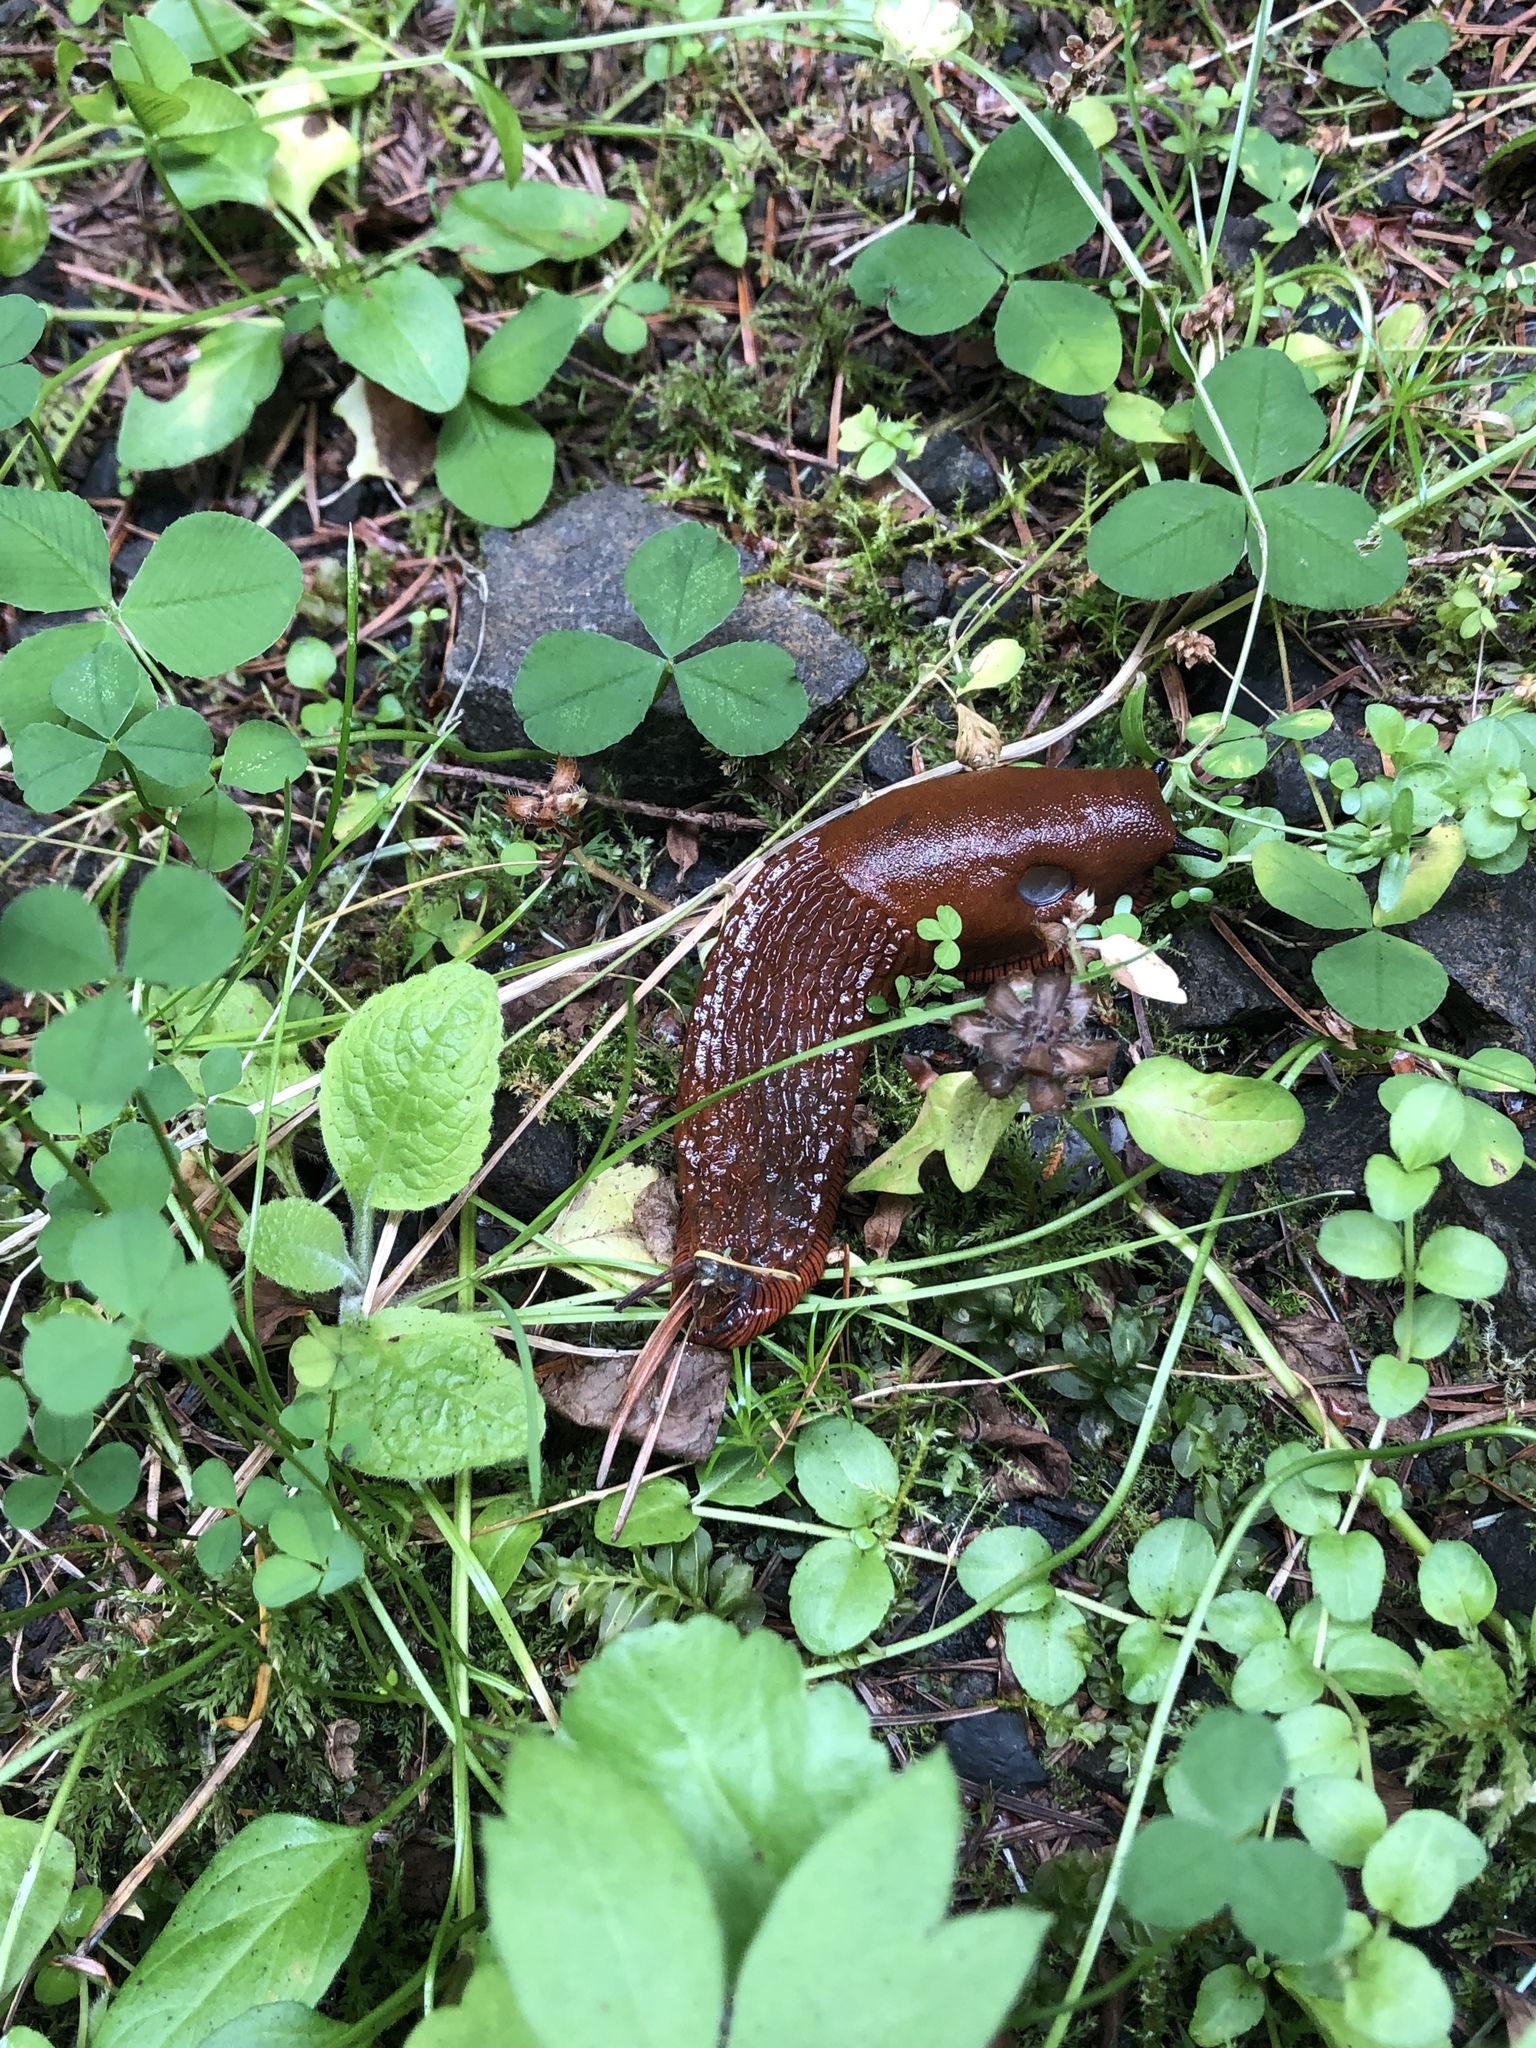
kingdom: Animalia
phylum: Mollusca
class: Gastropoda
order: Stylommatophora
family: Arionidae
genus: Arion
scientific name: Arion
